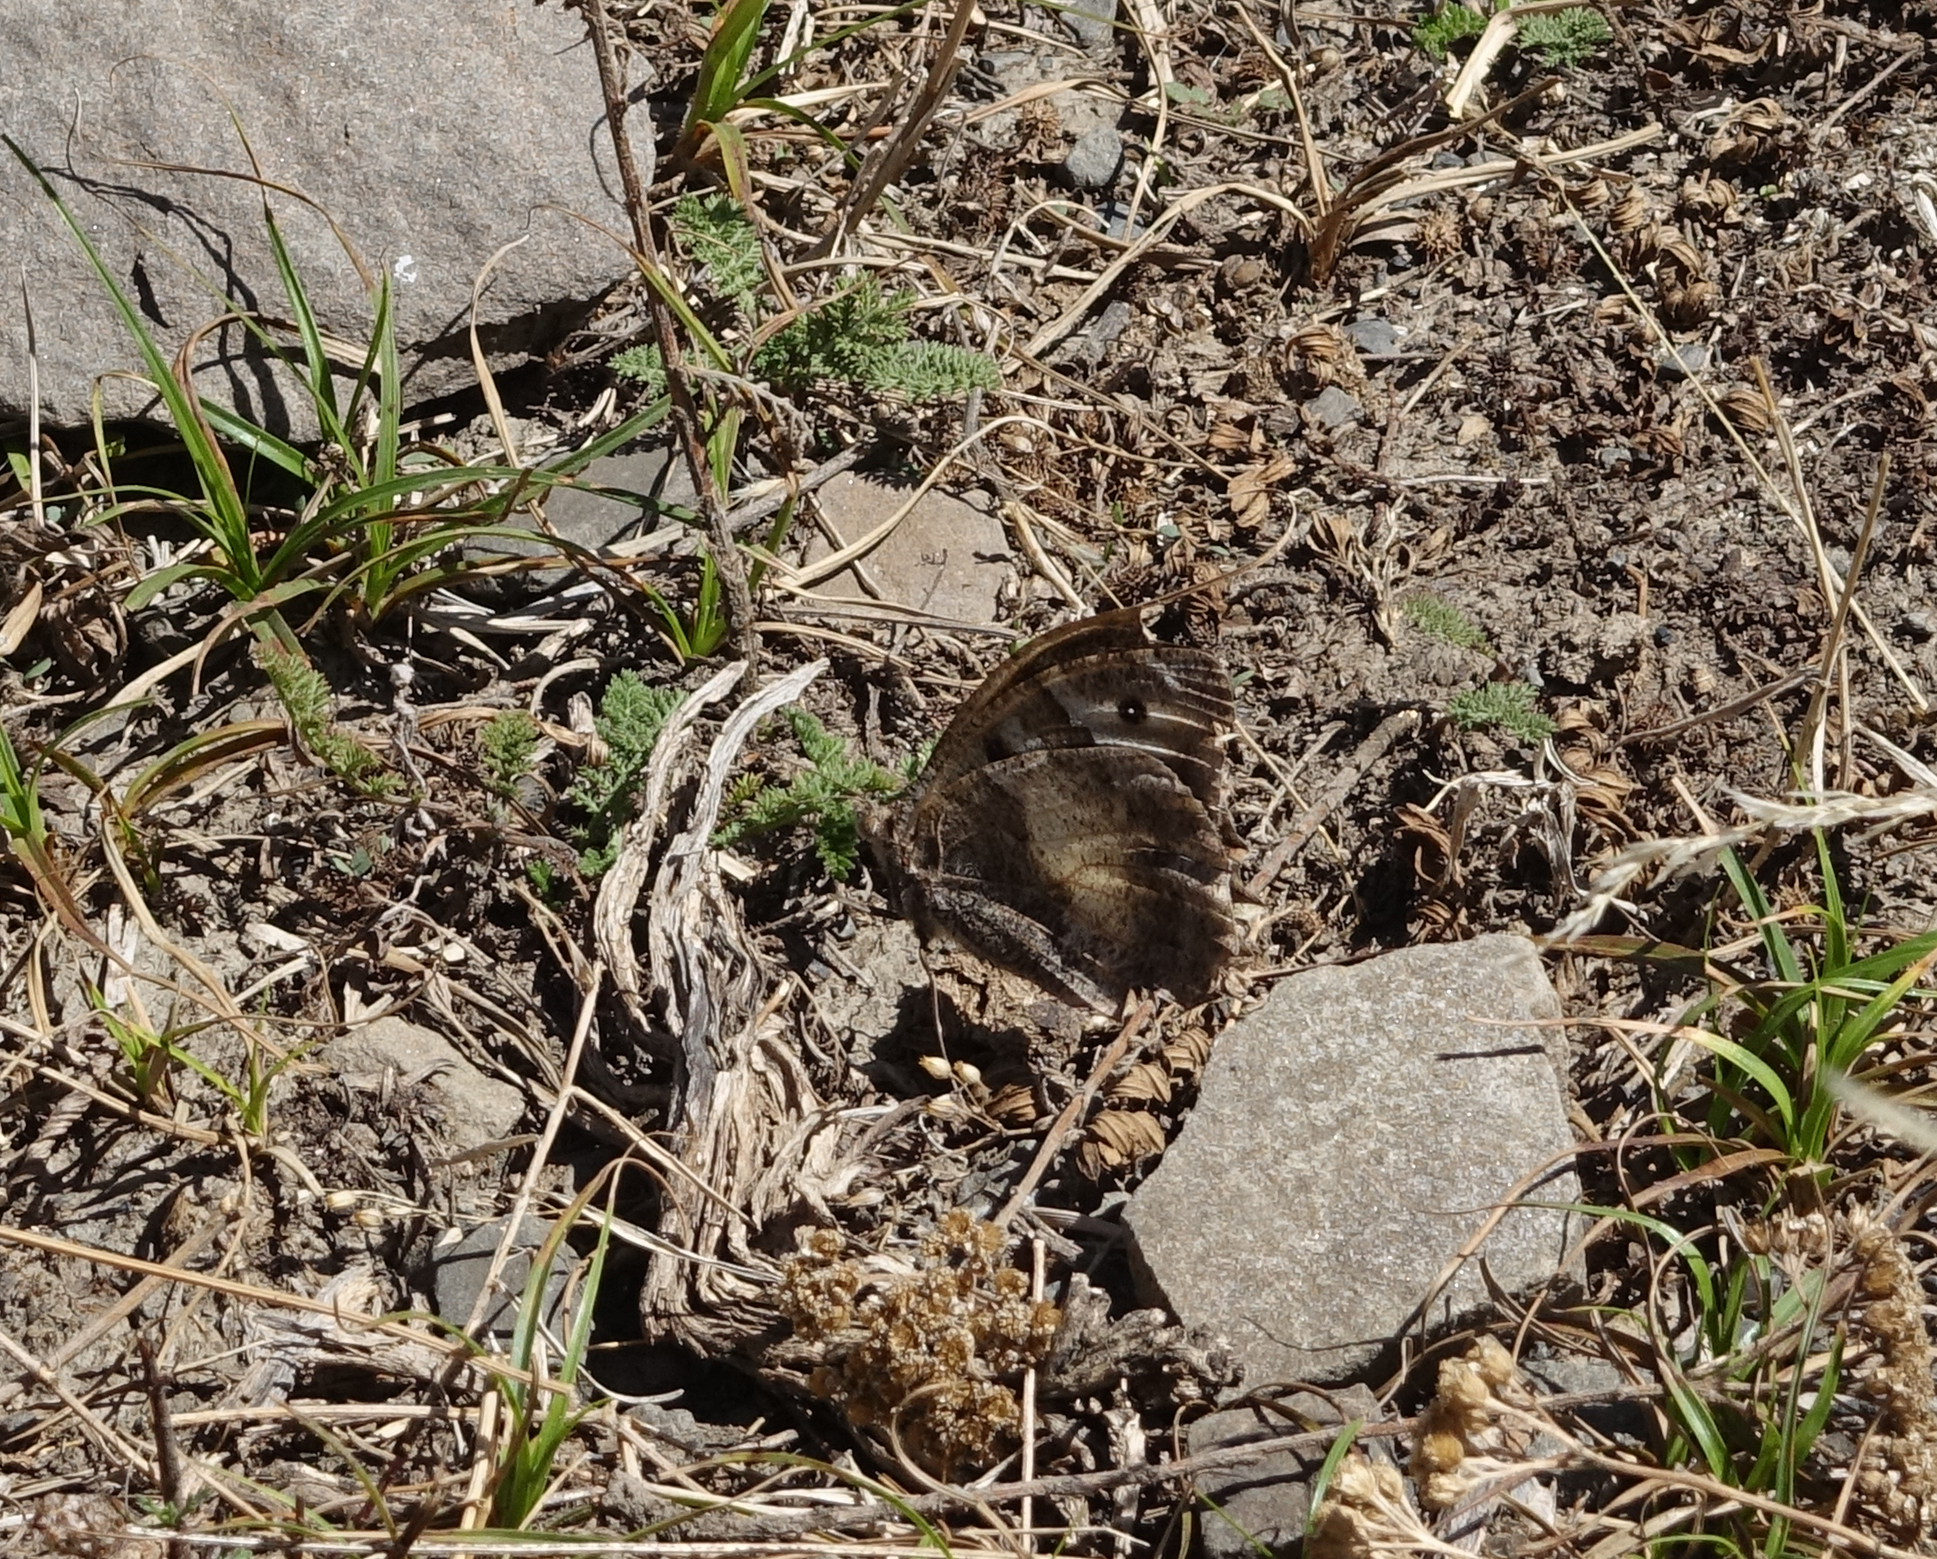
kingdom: Animalia
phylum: Arthropoda
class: Insecta
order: Lepidoptera
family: Nymphalidae
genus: Satyrus
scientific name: Satyrus briseis
